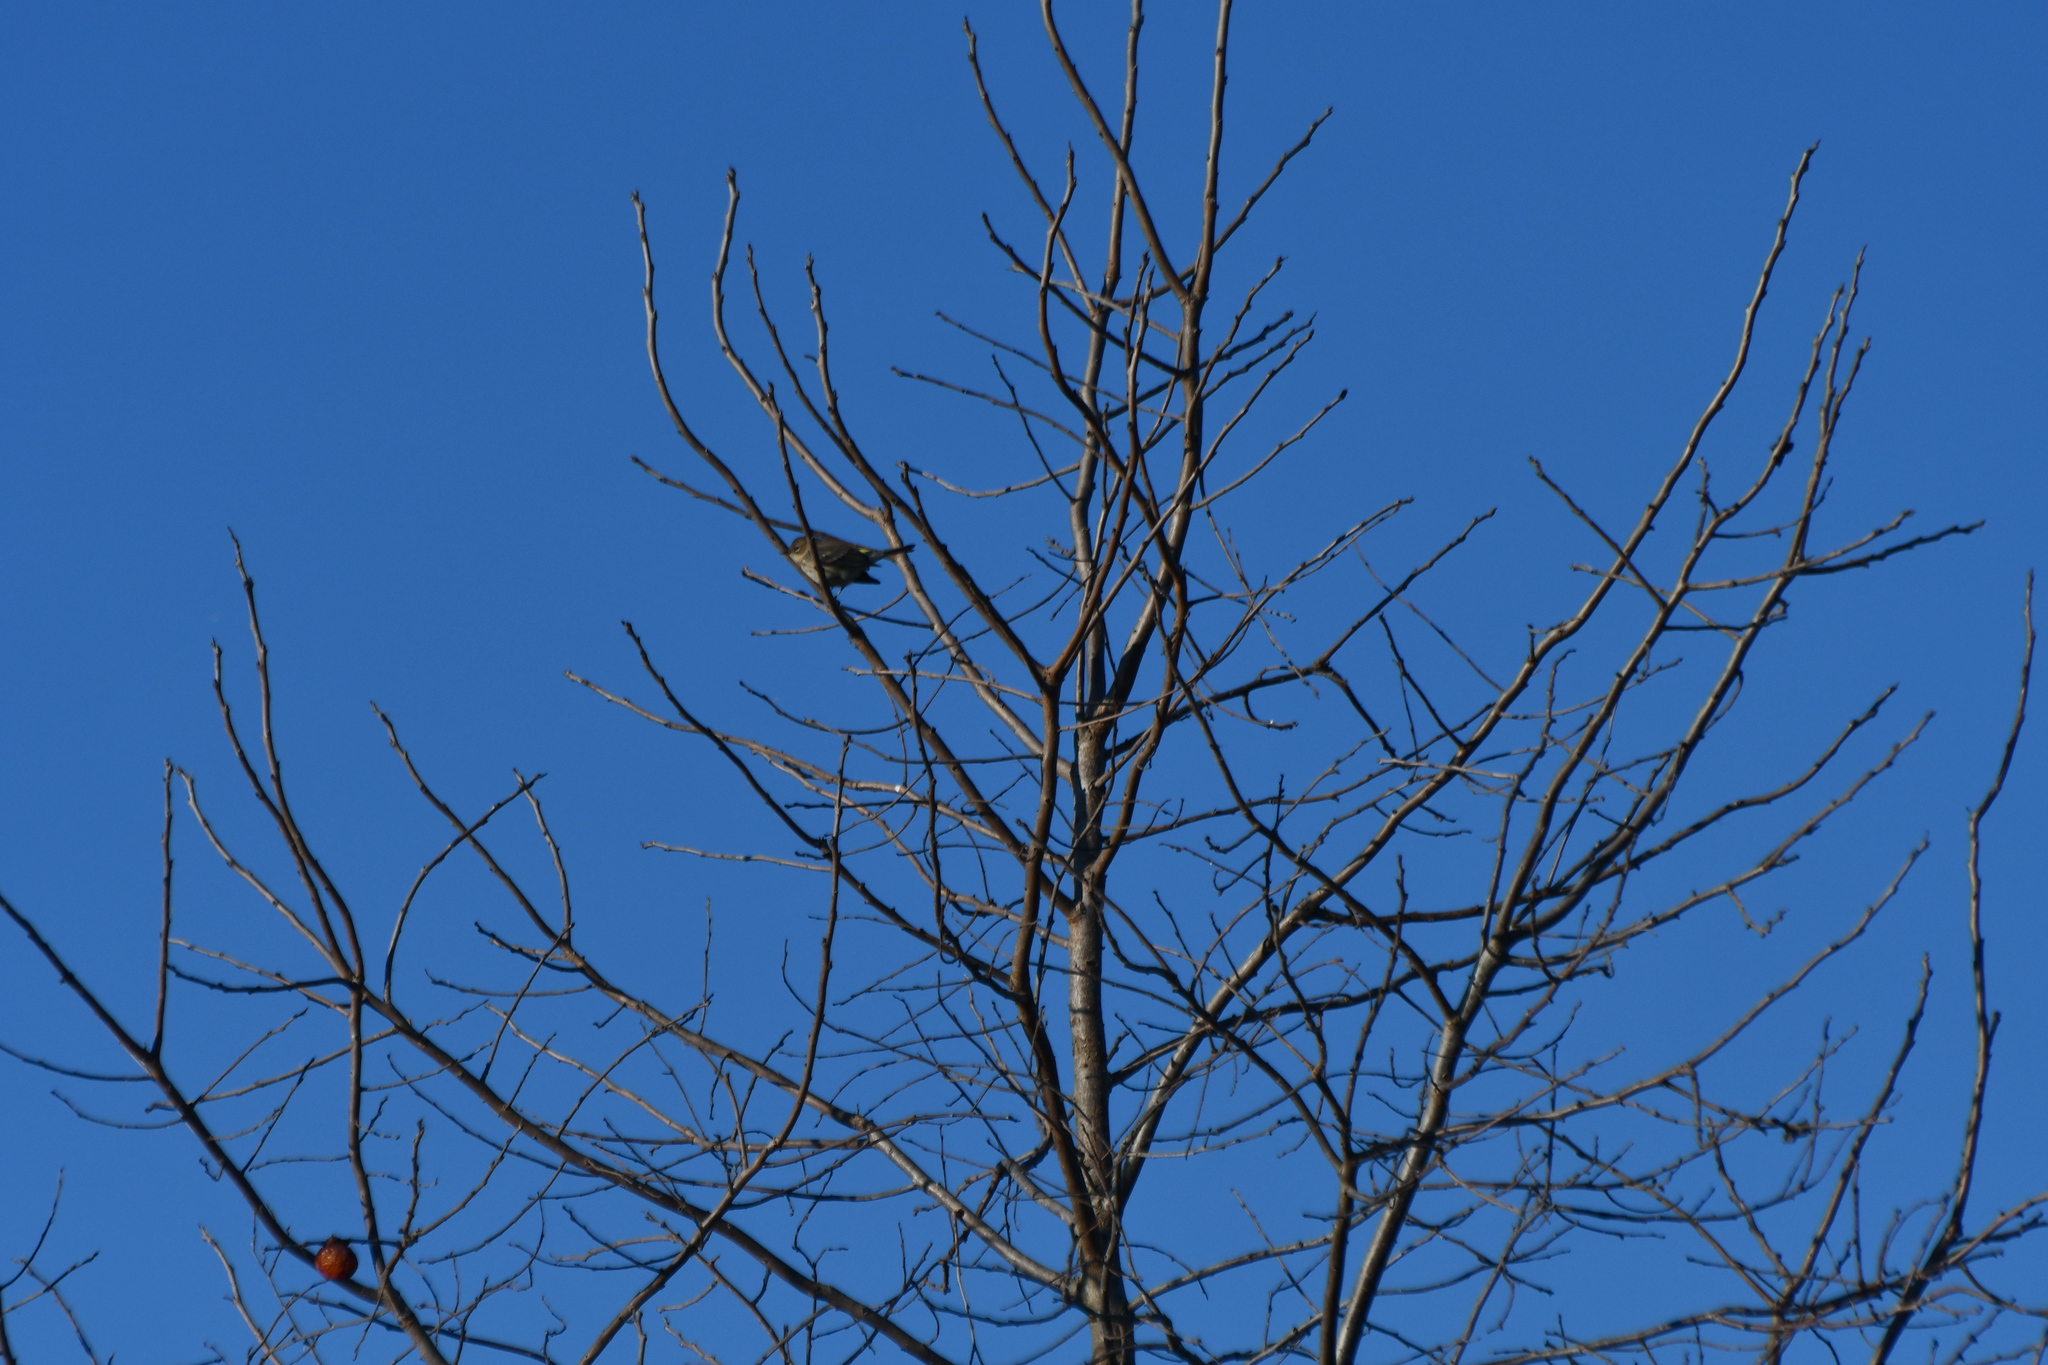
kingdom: Animalia
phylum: Chordata
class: Aves
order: Passeriformes
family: Parulidae
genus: Setophaga
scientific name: Setophaga coronata
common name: Myrtle warbler
